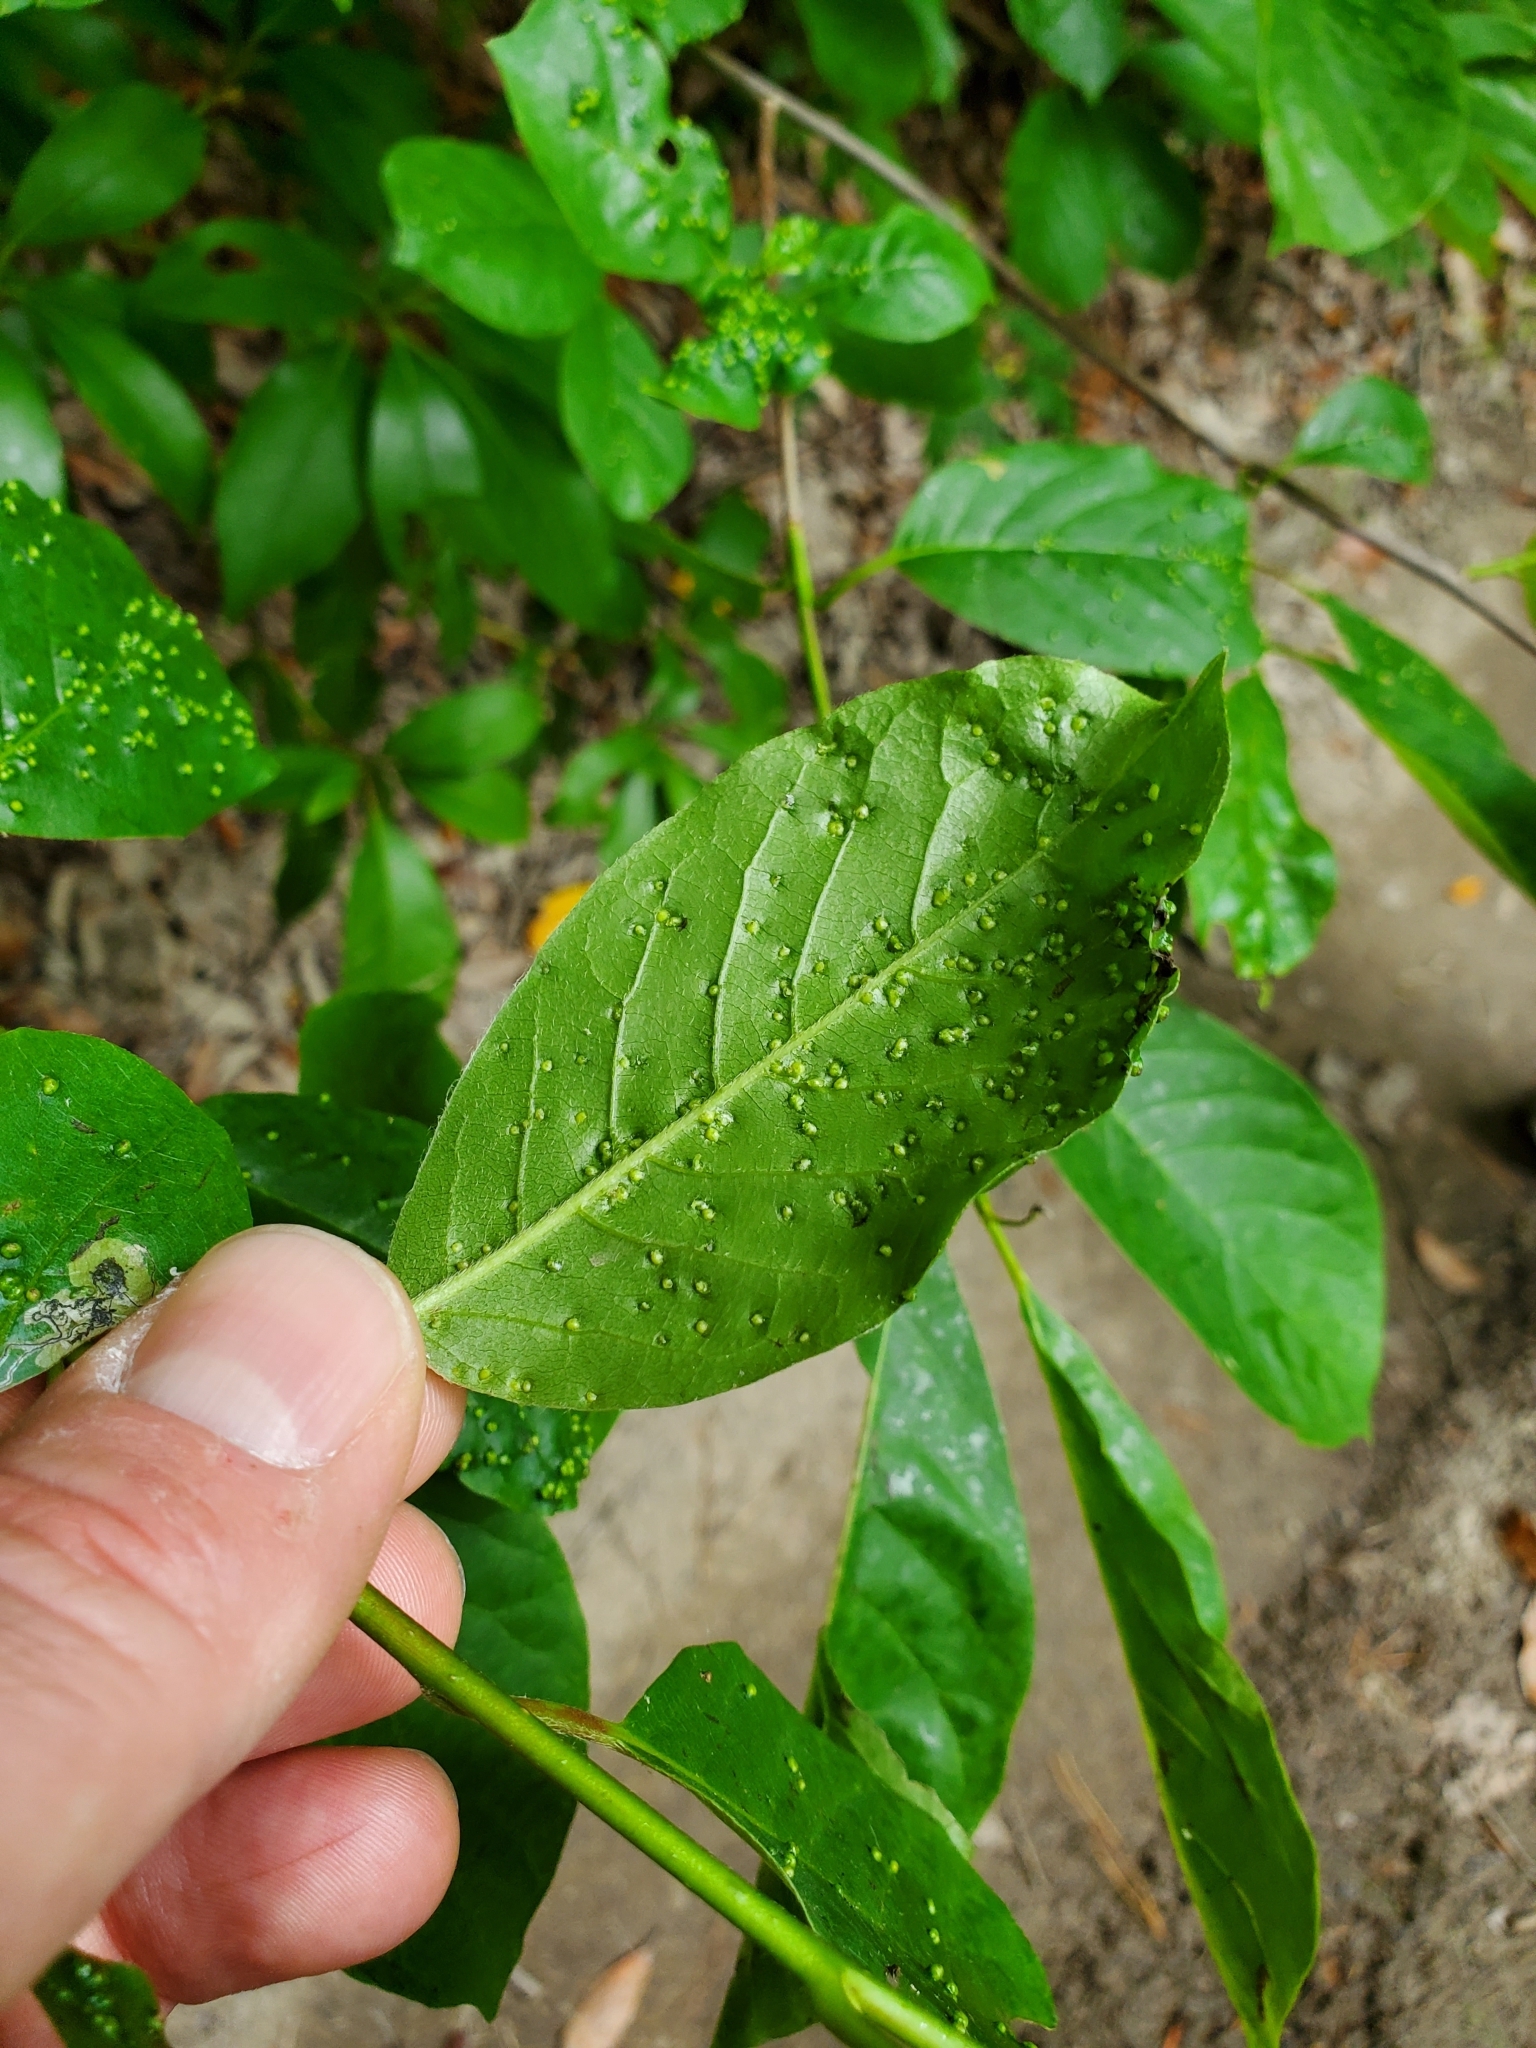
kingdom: Animalia
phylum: Arthropoda
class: Arachnida
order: Trombidiformes
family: Eriophyidae
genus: Aceria
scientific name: Aceria
